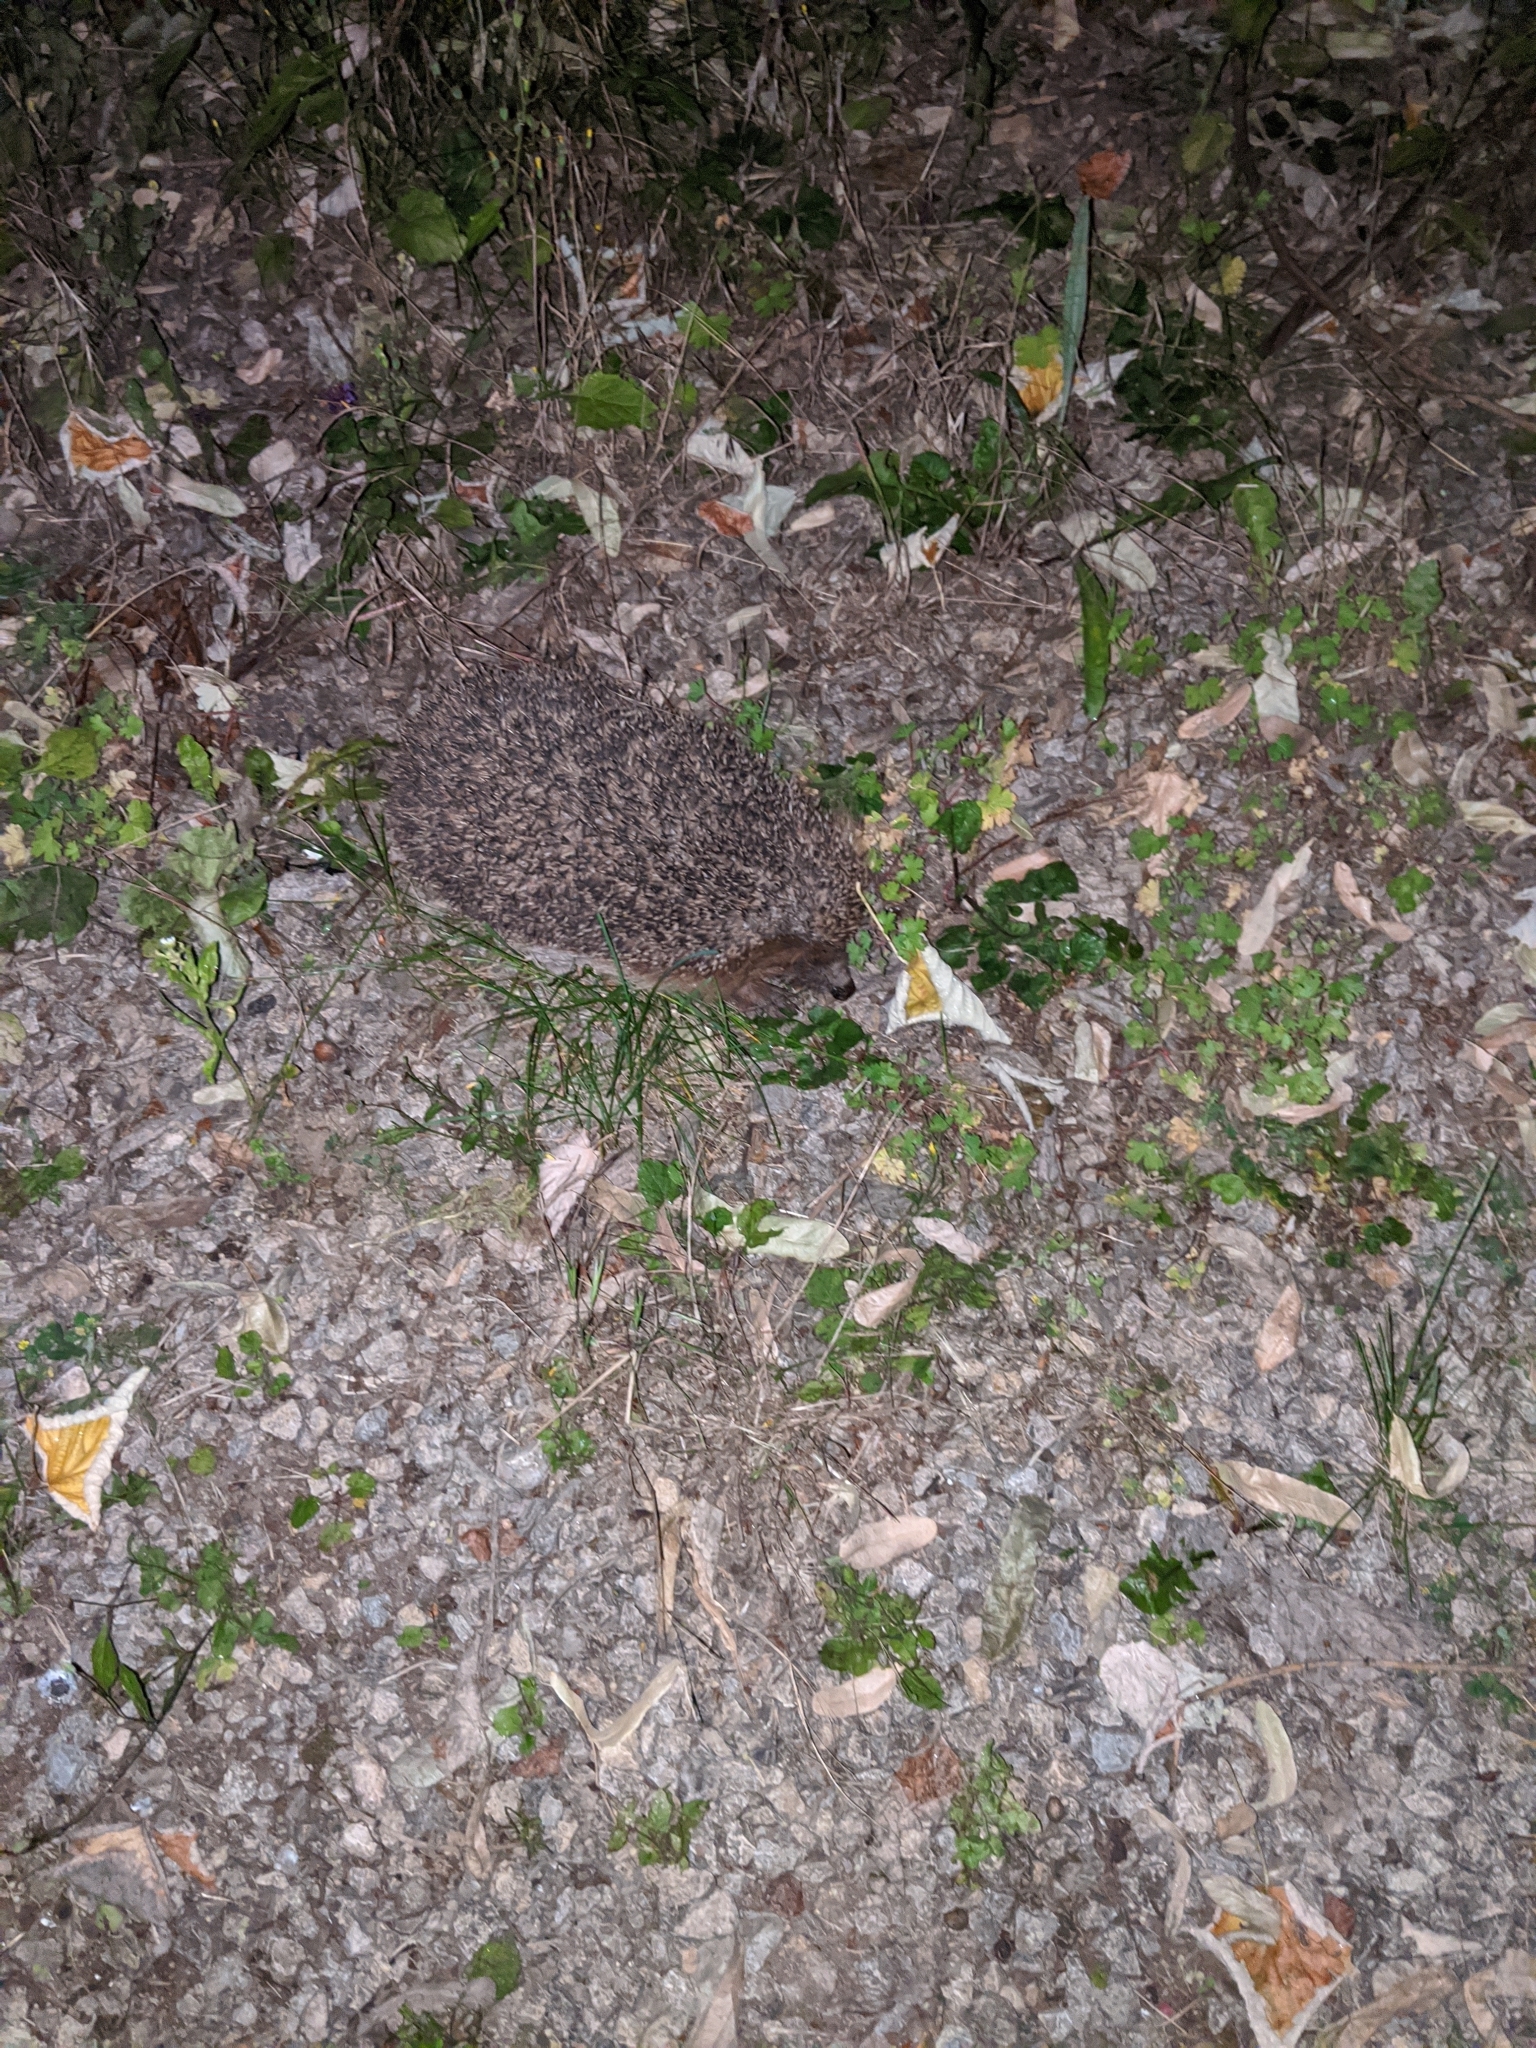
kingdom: Animalia
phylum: Chordata
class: Mammalia
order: Erinaceomorpha
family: Erinaceidae
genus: Erinaceus
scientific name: Erinaceus europaeus
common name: West european hedgehog
